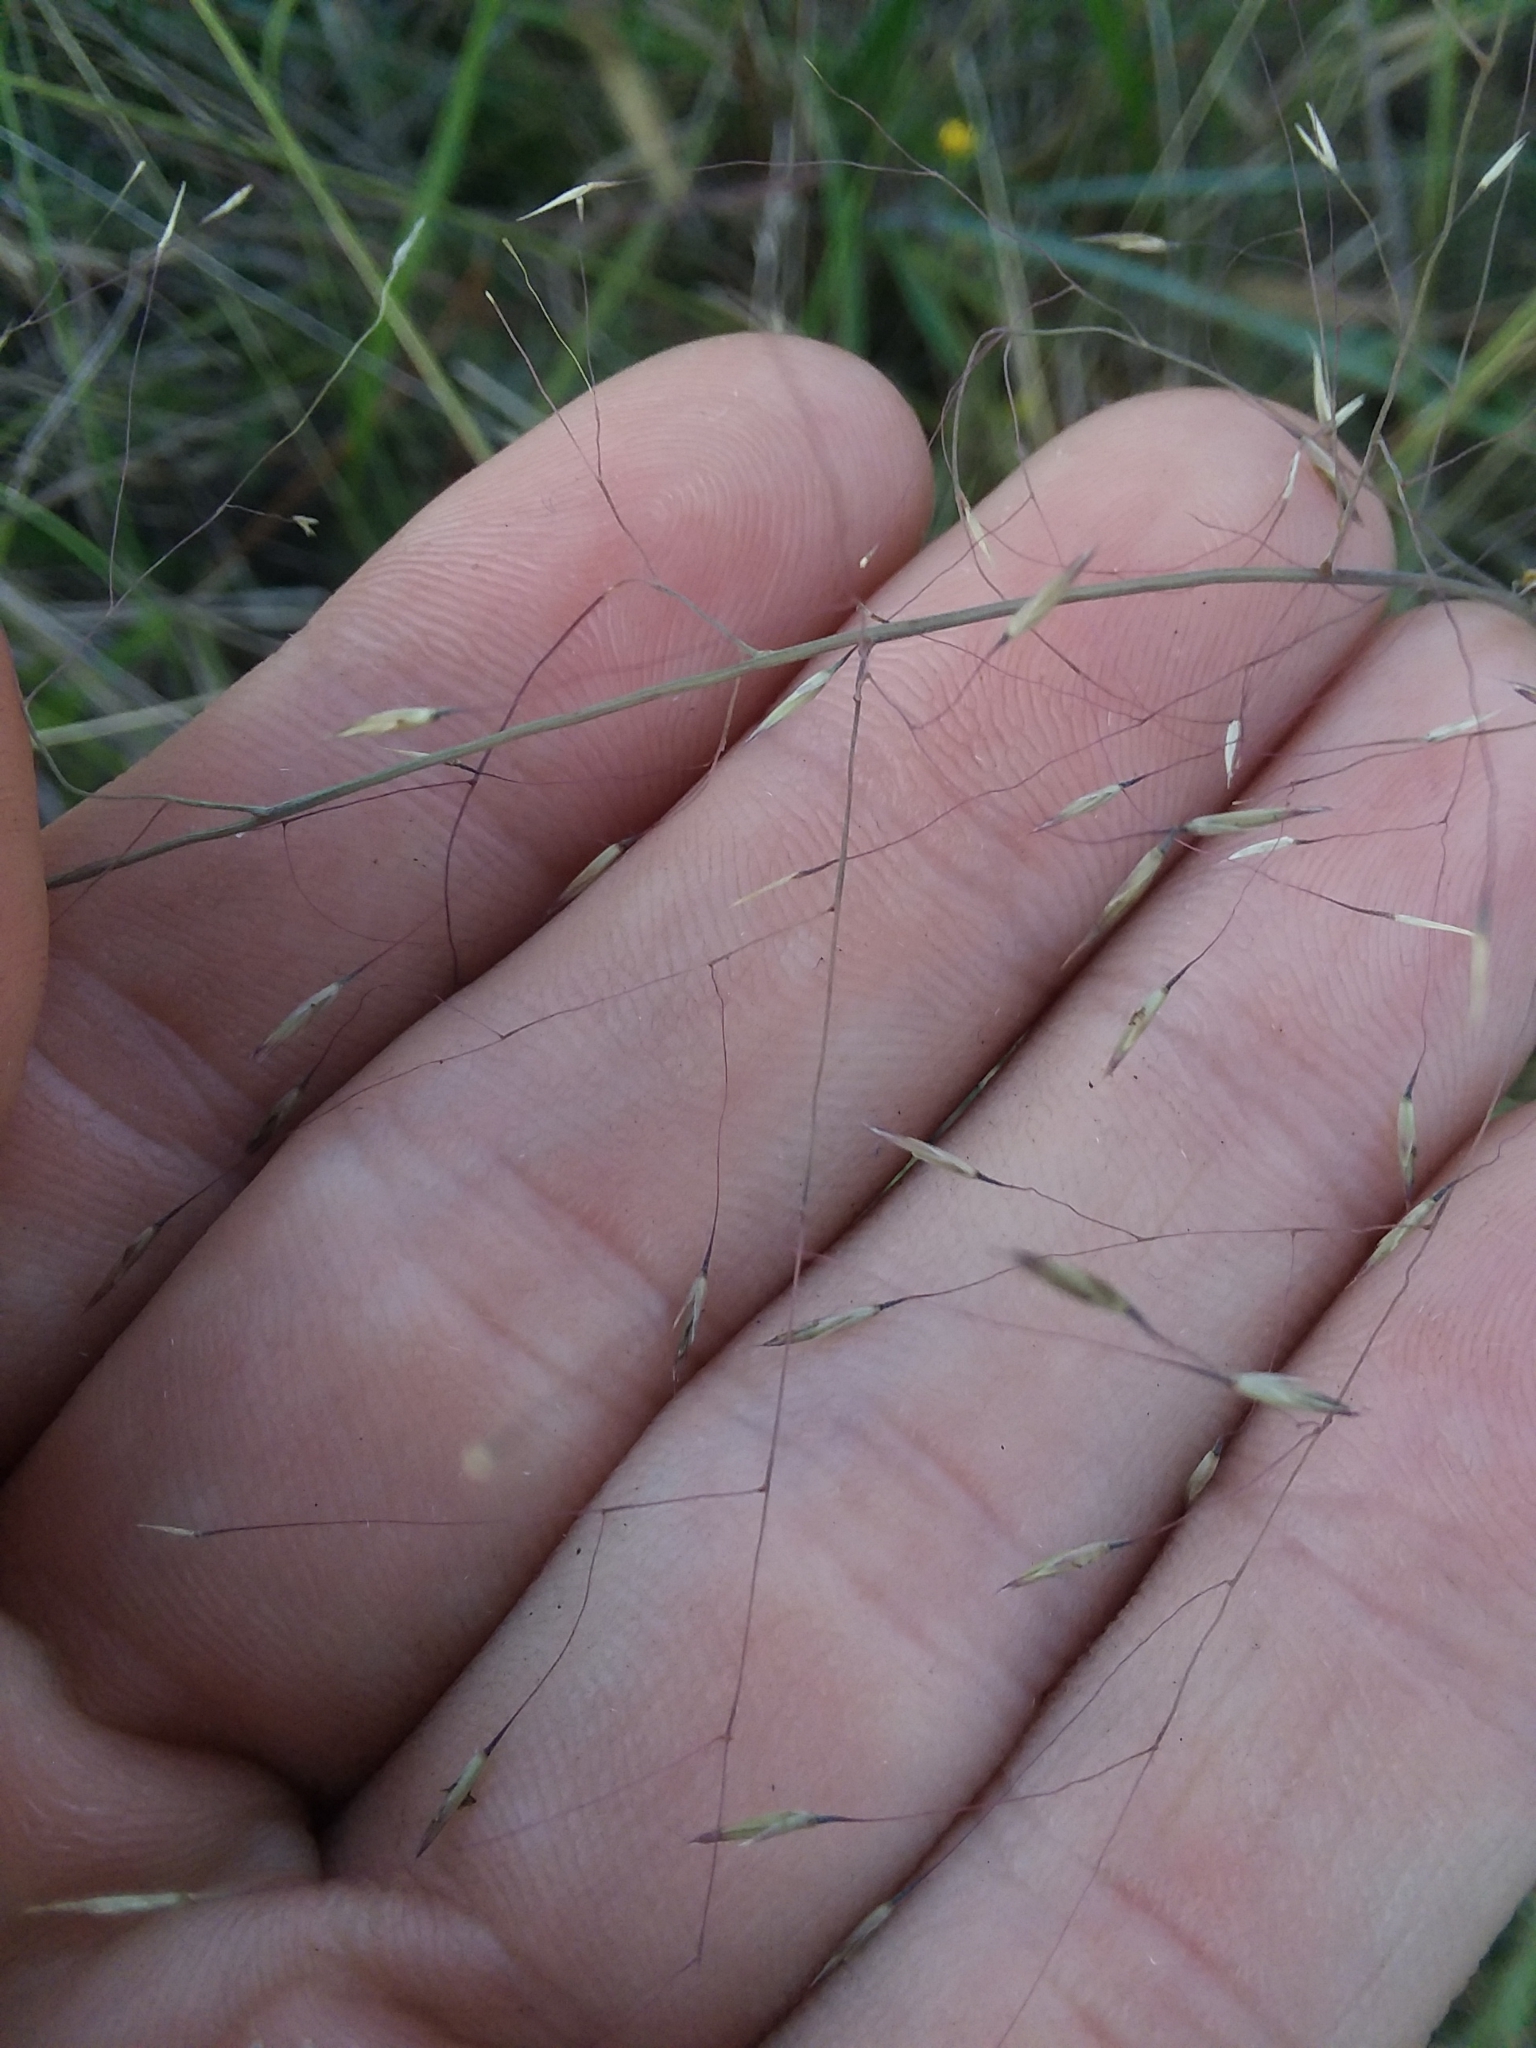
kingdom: Plantae
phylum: Tracheophyta
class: Liliopsida
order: Poales
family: Poaceae
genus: Muhlenbergia
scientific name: Muhlenbergia expansa
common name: Savannah hairgrass
